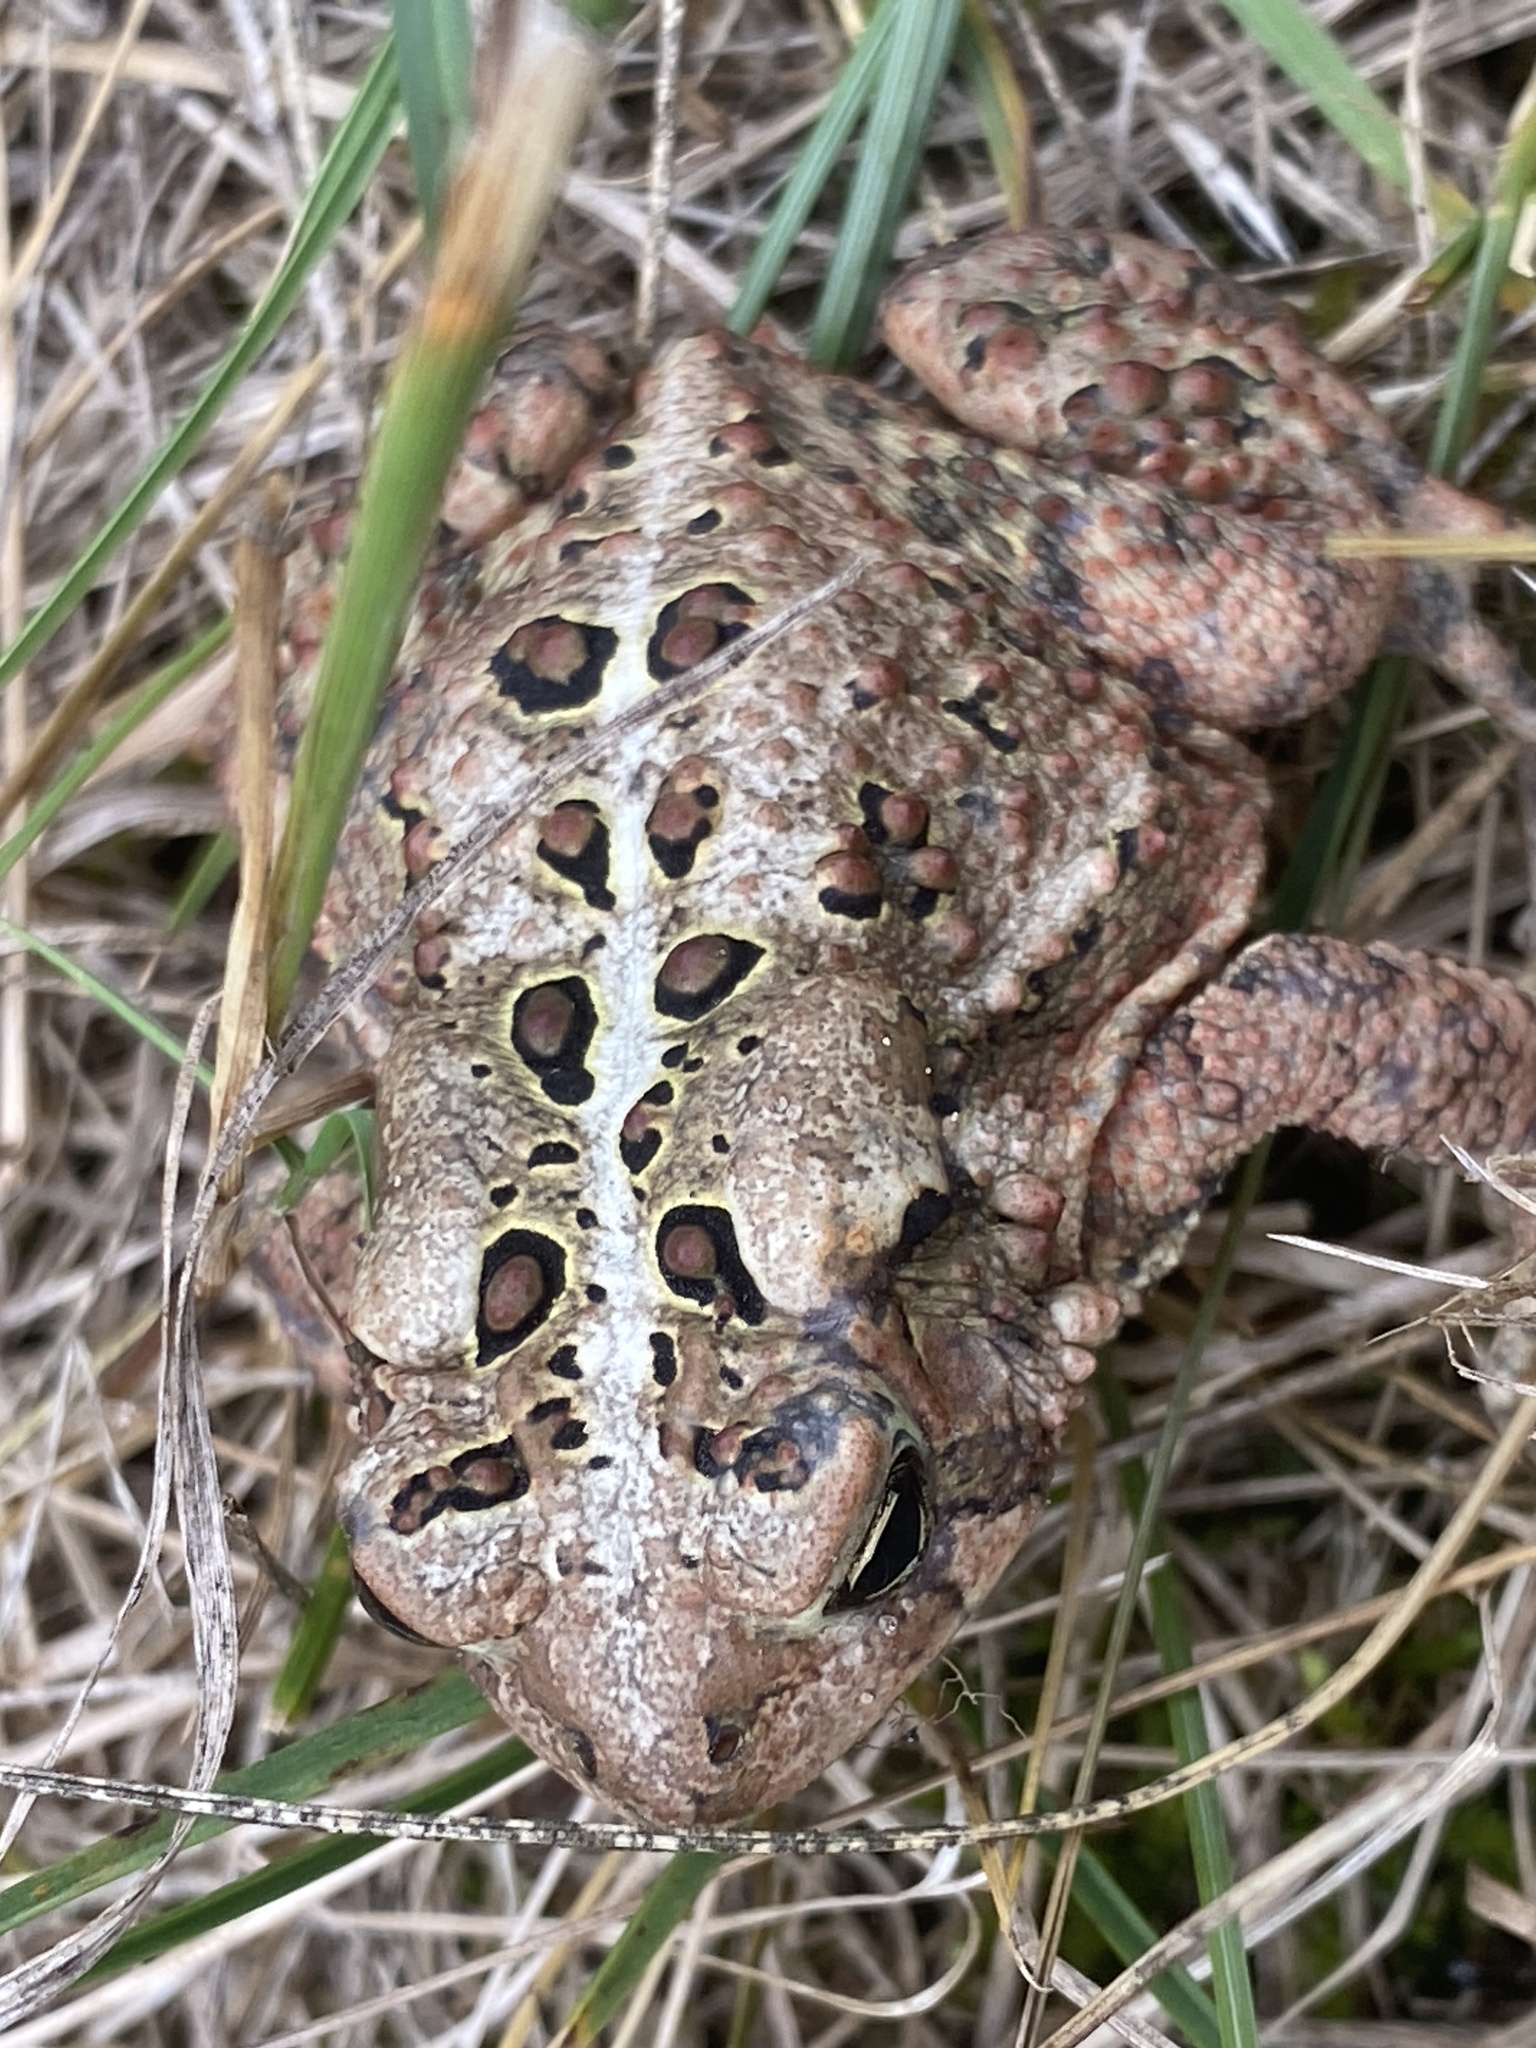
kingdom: Animalia
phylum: Chordata
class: Amphibia
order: Anura
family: Bufonidae
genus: Anaxyrus
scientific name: Anaxyrus americanus
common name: American toad
